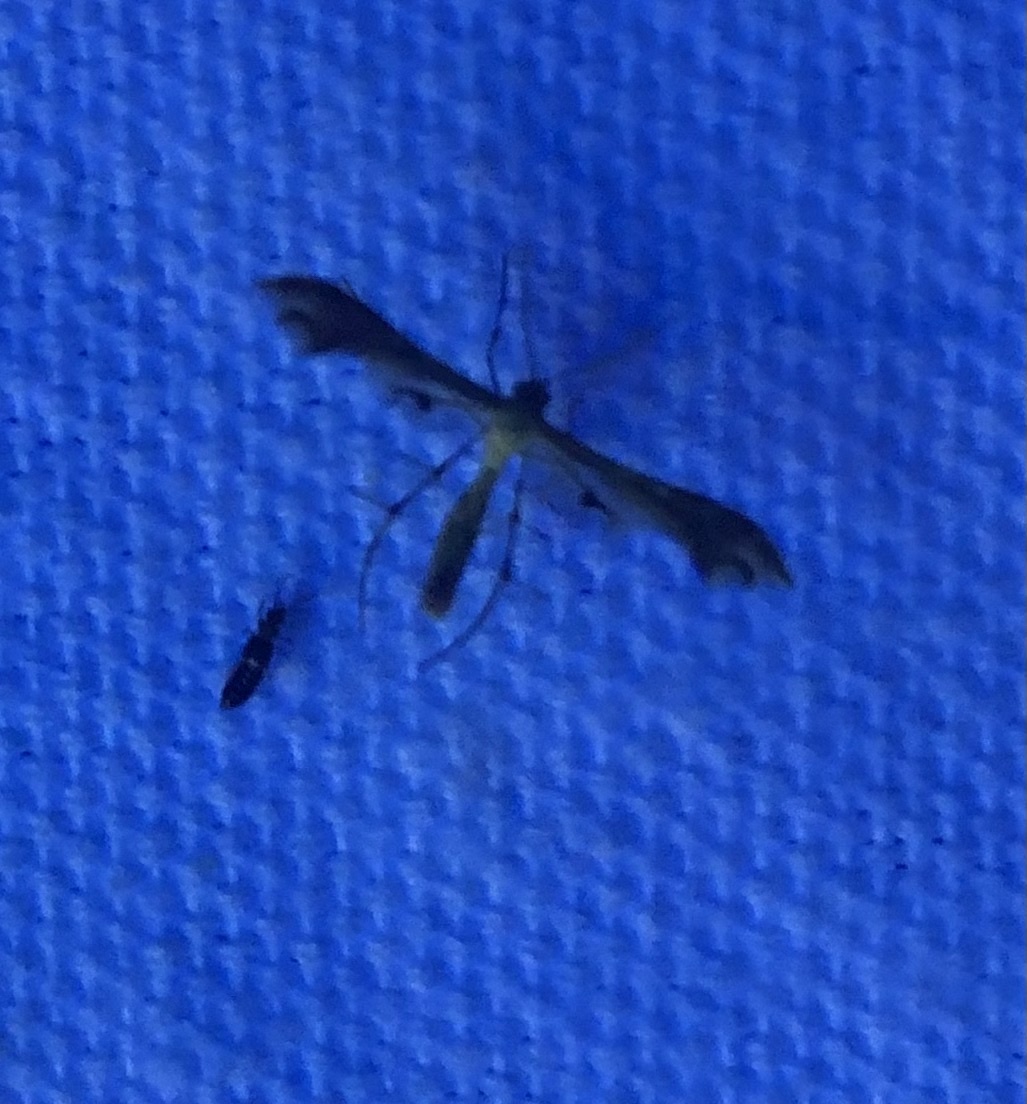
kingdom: Animalia
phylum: Arthropoda
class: Insecta
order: Lepidoptera
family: Pterophoridae
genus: Sphenarches
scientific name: Sphenarches anisodactylus
